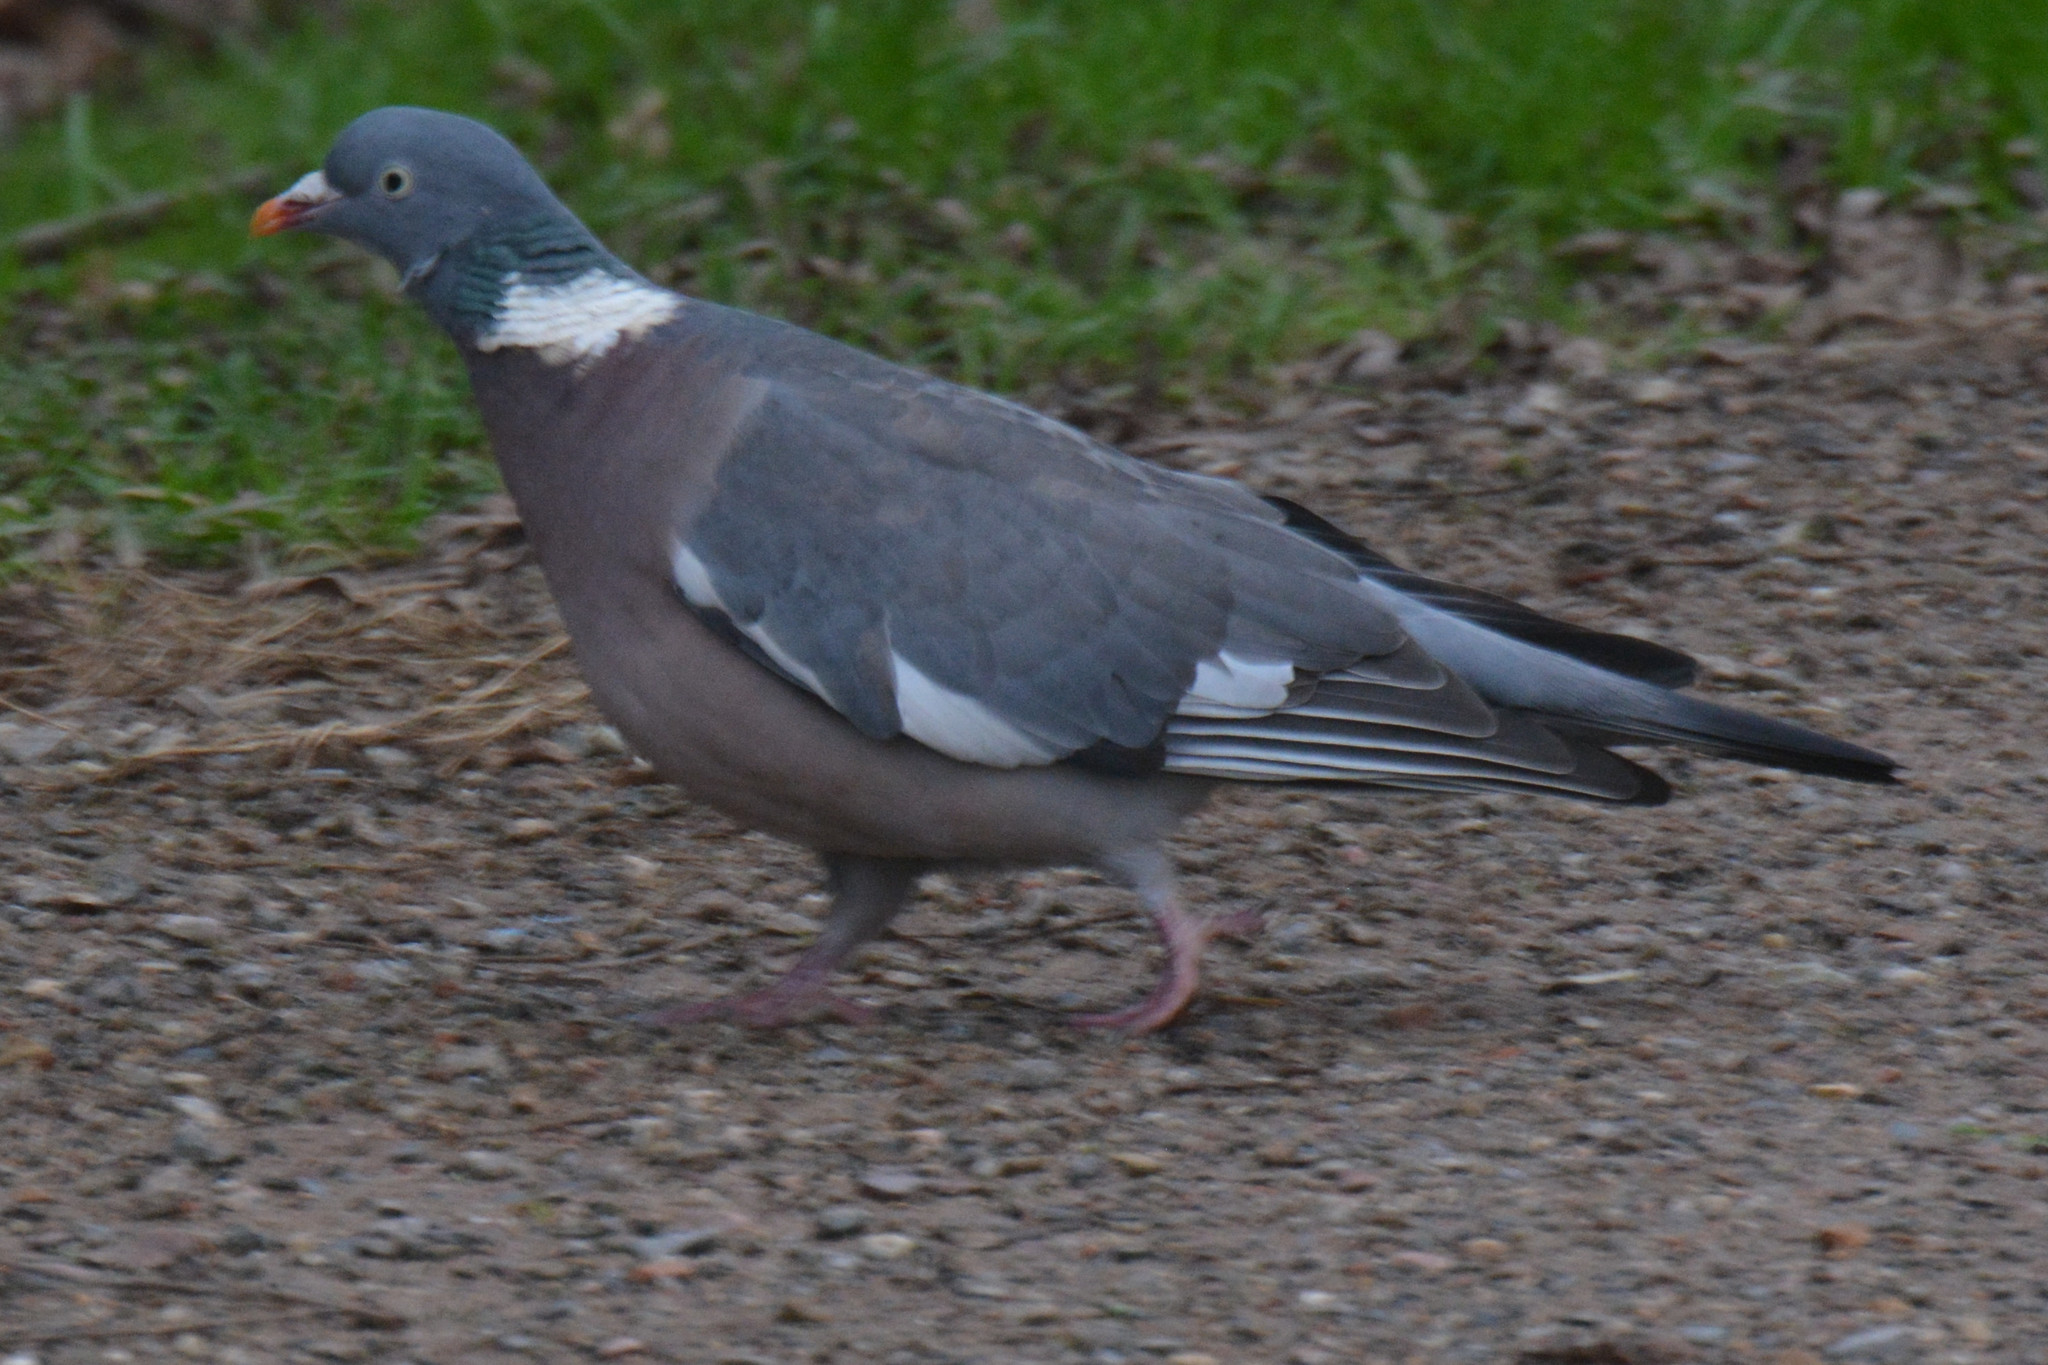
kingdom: Animalia
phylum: Chordata
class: Aves
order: Columbiformes
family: Columbidae
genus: Columba
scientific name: Columba palumbus
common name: Common wood pigeon
